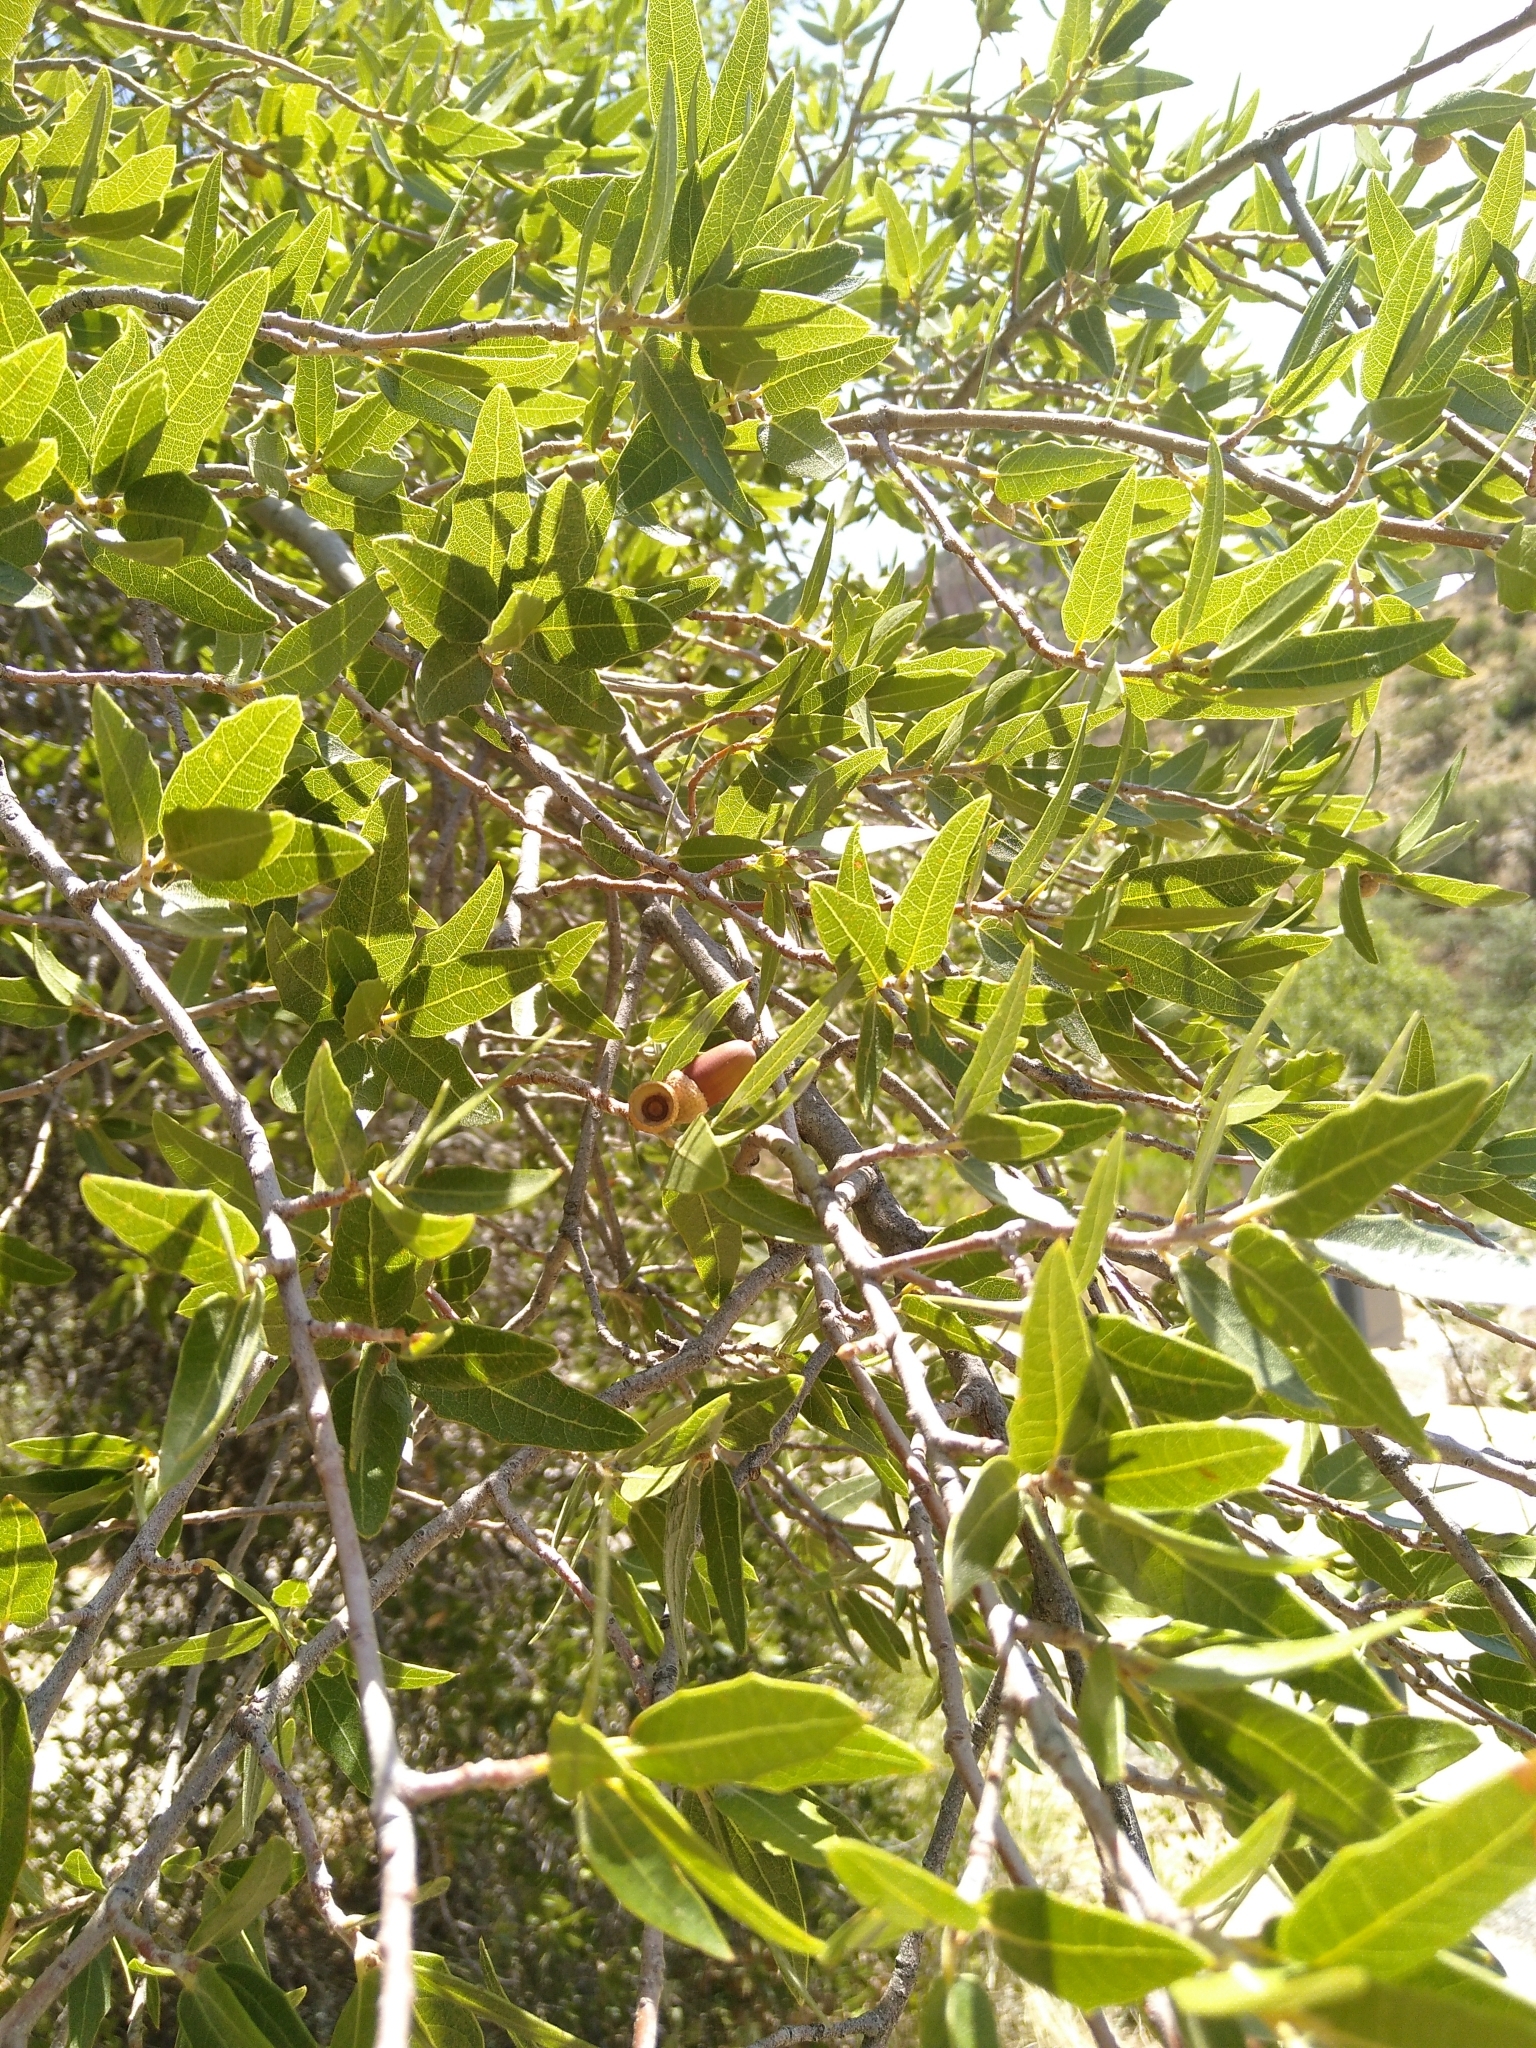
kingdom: Plantae
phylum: Tracheophyta
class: Magnoliopsida
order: Fagales
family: Fagaceae
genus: Quercus
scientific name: Quercus emoryi
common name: Emory oak
